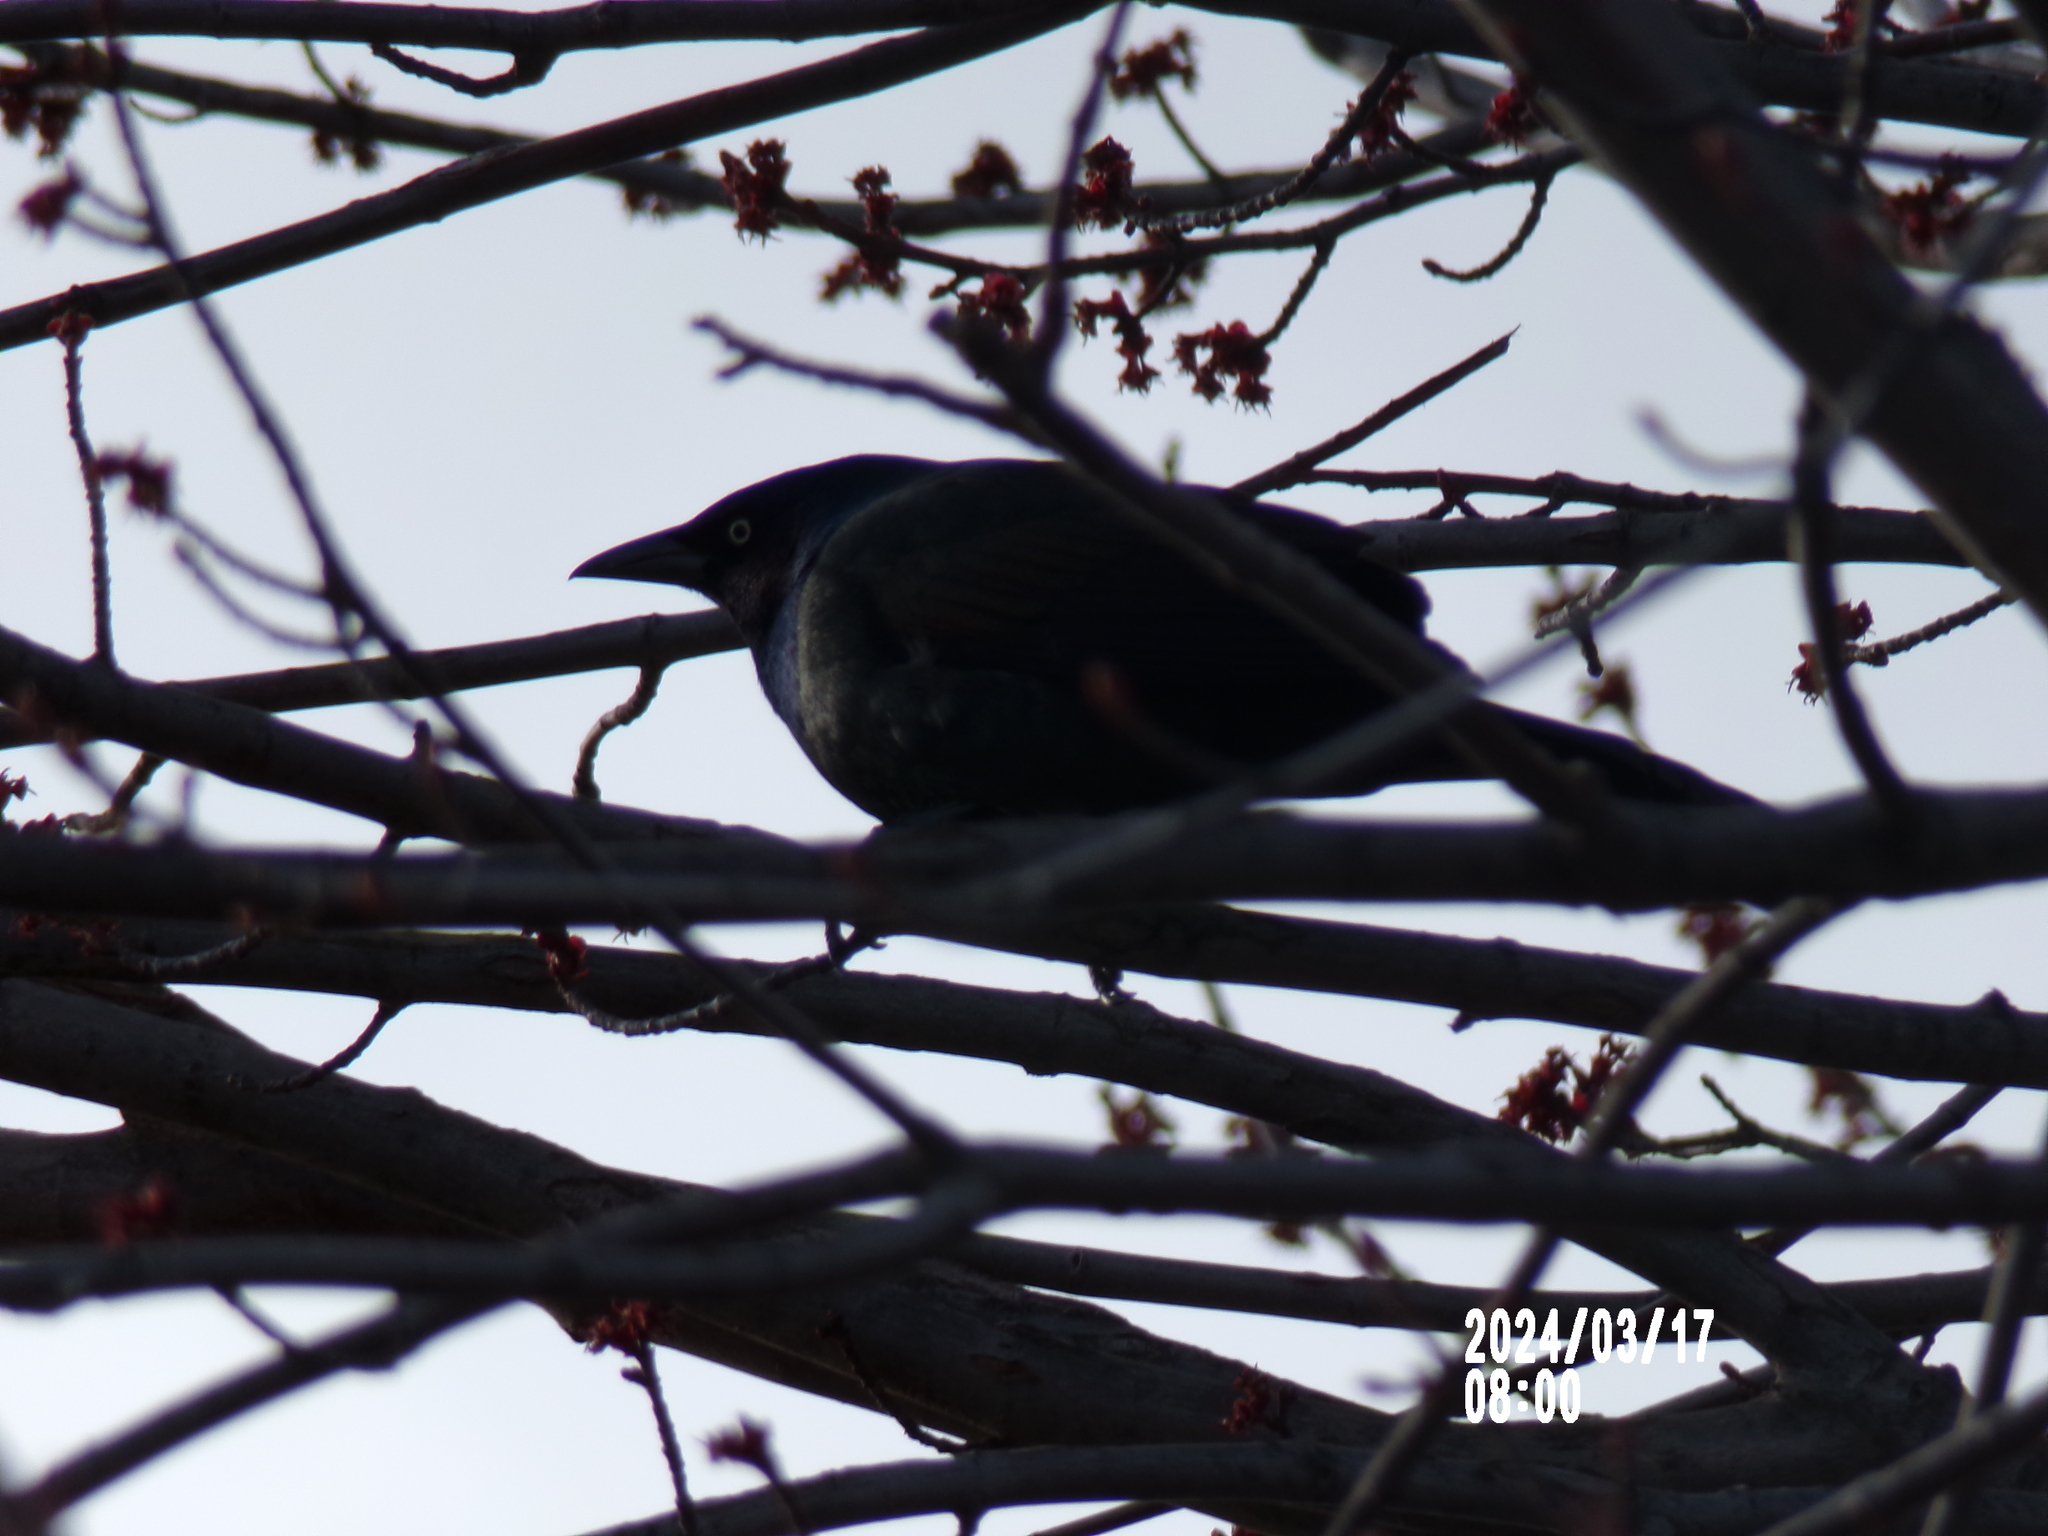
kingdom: Animalia
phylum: Chordata
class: Aves
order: Passeriformes
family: Icteridae
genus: Quiscalus
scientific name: Quiscalus quiscula
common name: Common grackle
